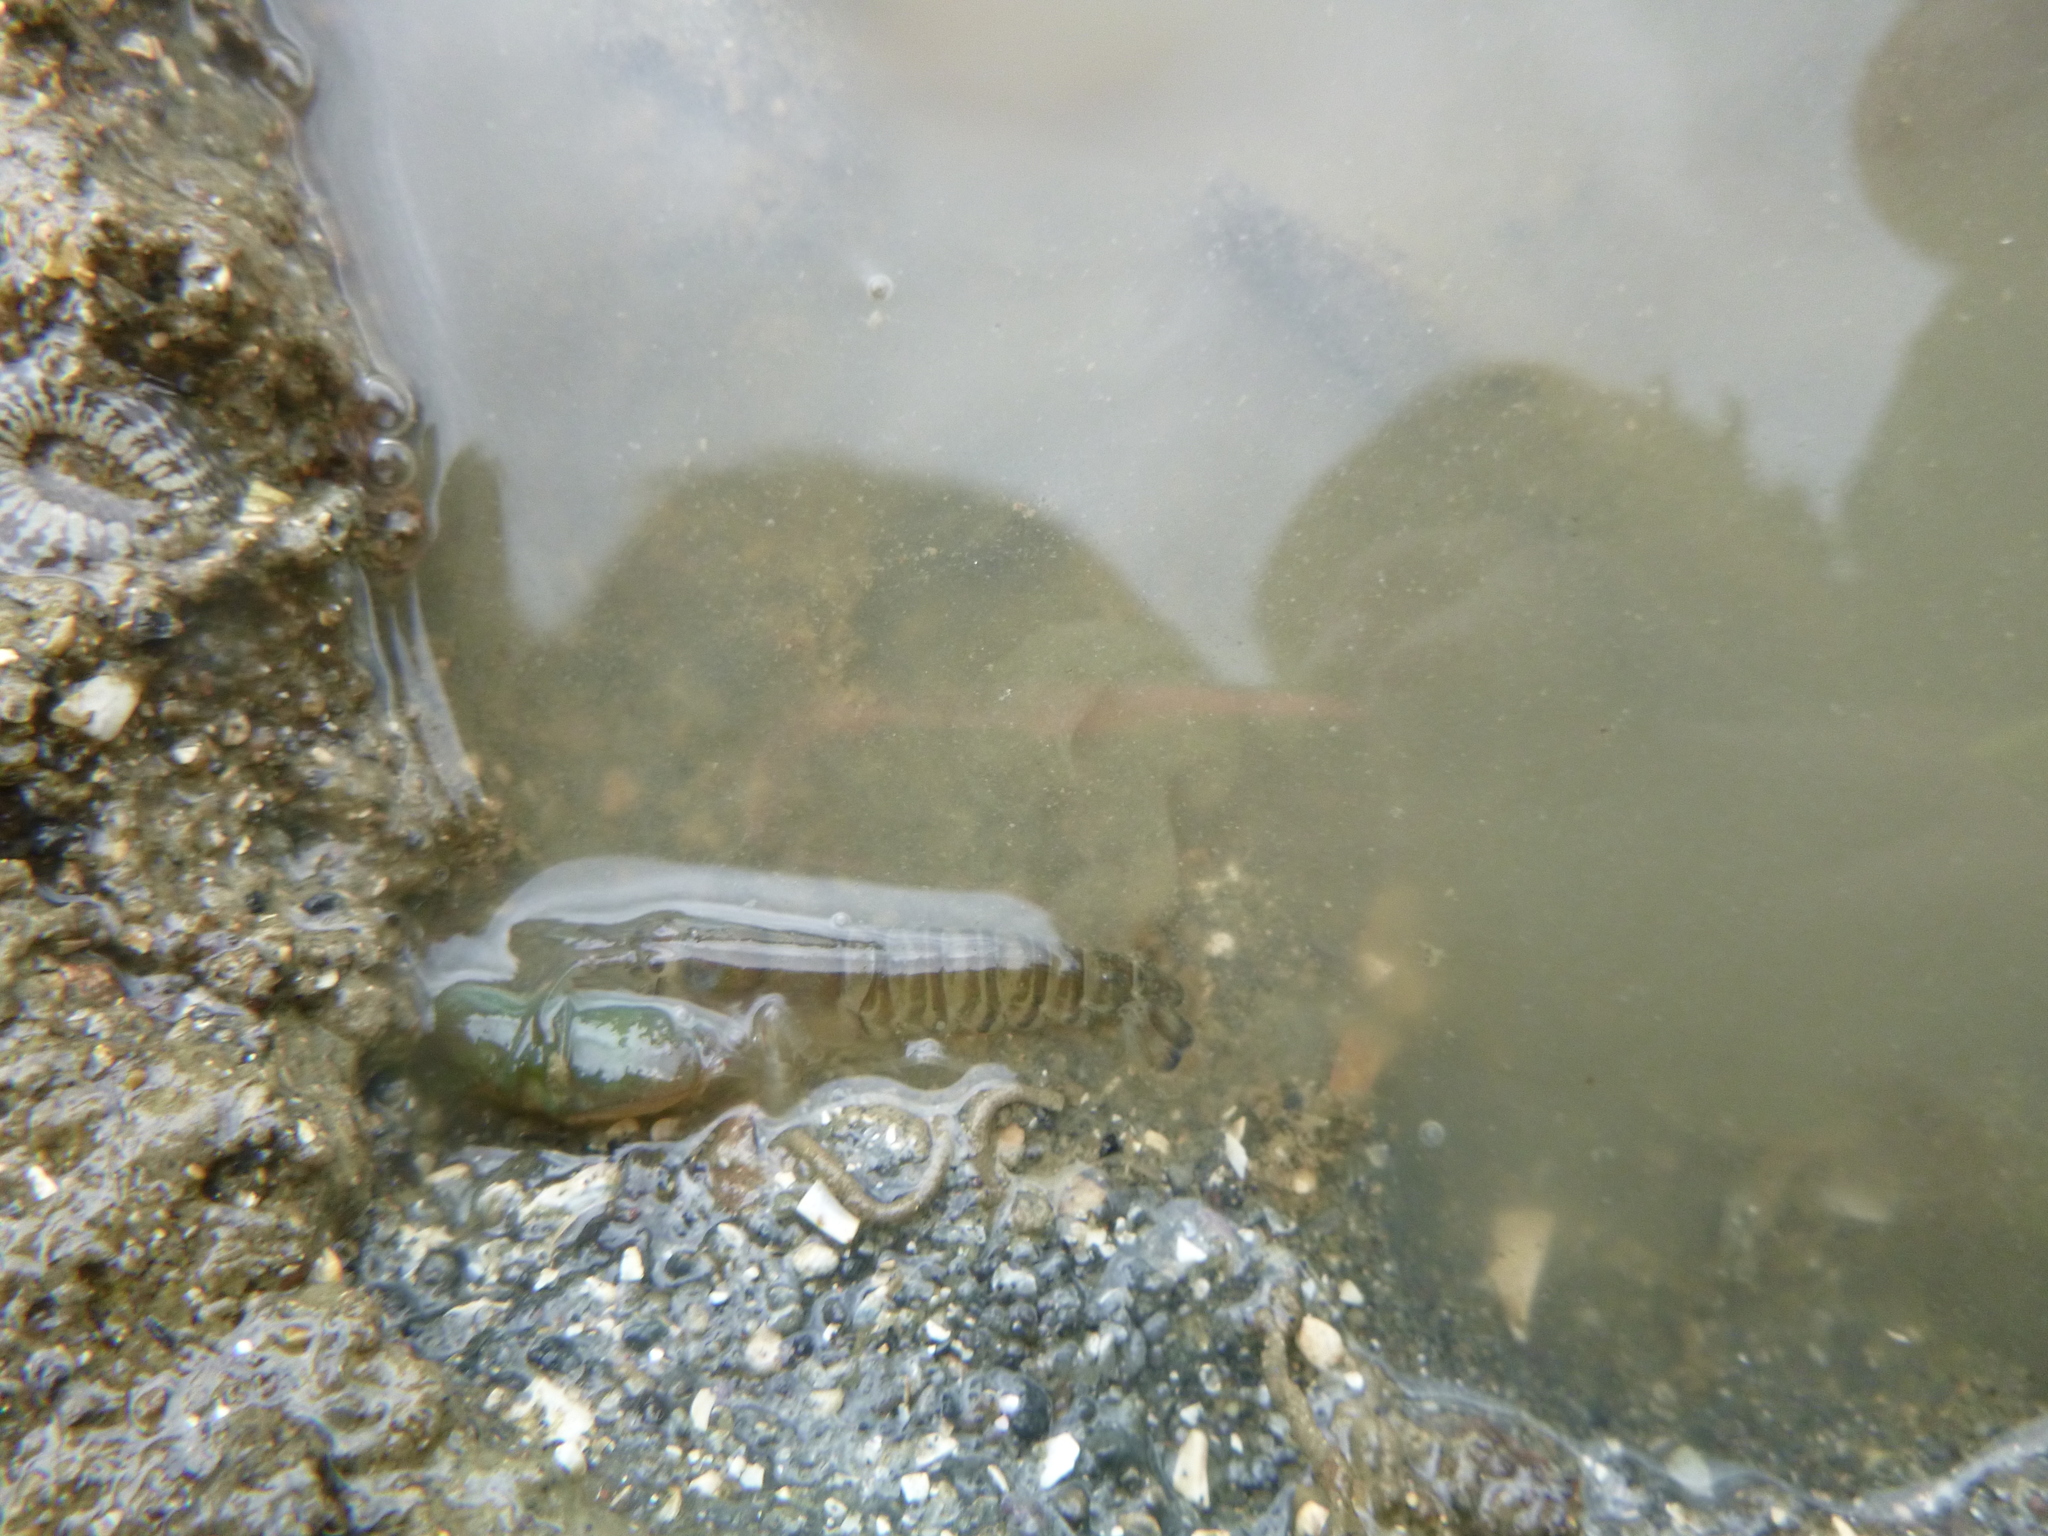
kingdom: Animalia
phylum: Arthropoda
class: Malacostraca
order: Decapoda
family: Alpheidae
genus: Alpheus
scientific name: Alpheus richardsoni
